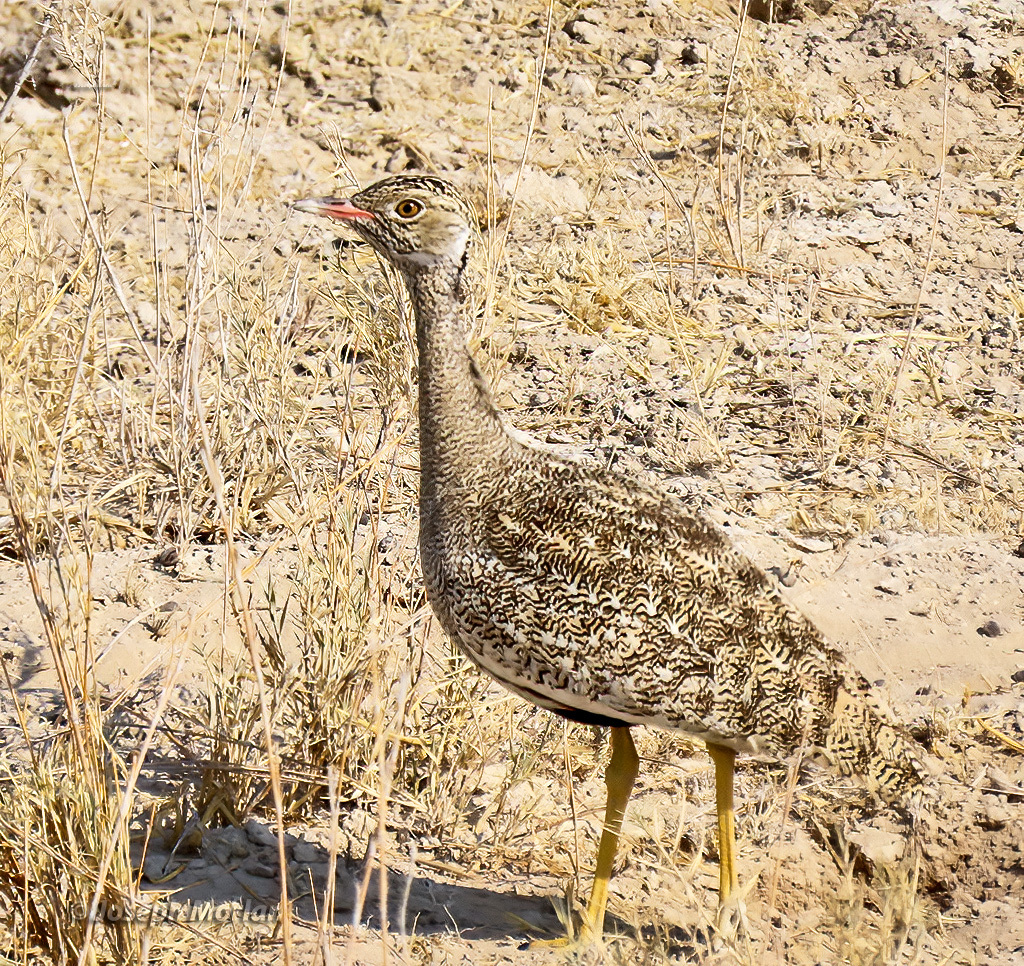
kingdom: Animalia
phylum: Chordata
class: Aves
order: Otidiformes
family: Otididae
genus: Afrotis
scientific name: Afrotis afraoides
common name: Northern black korhaan
